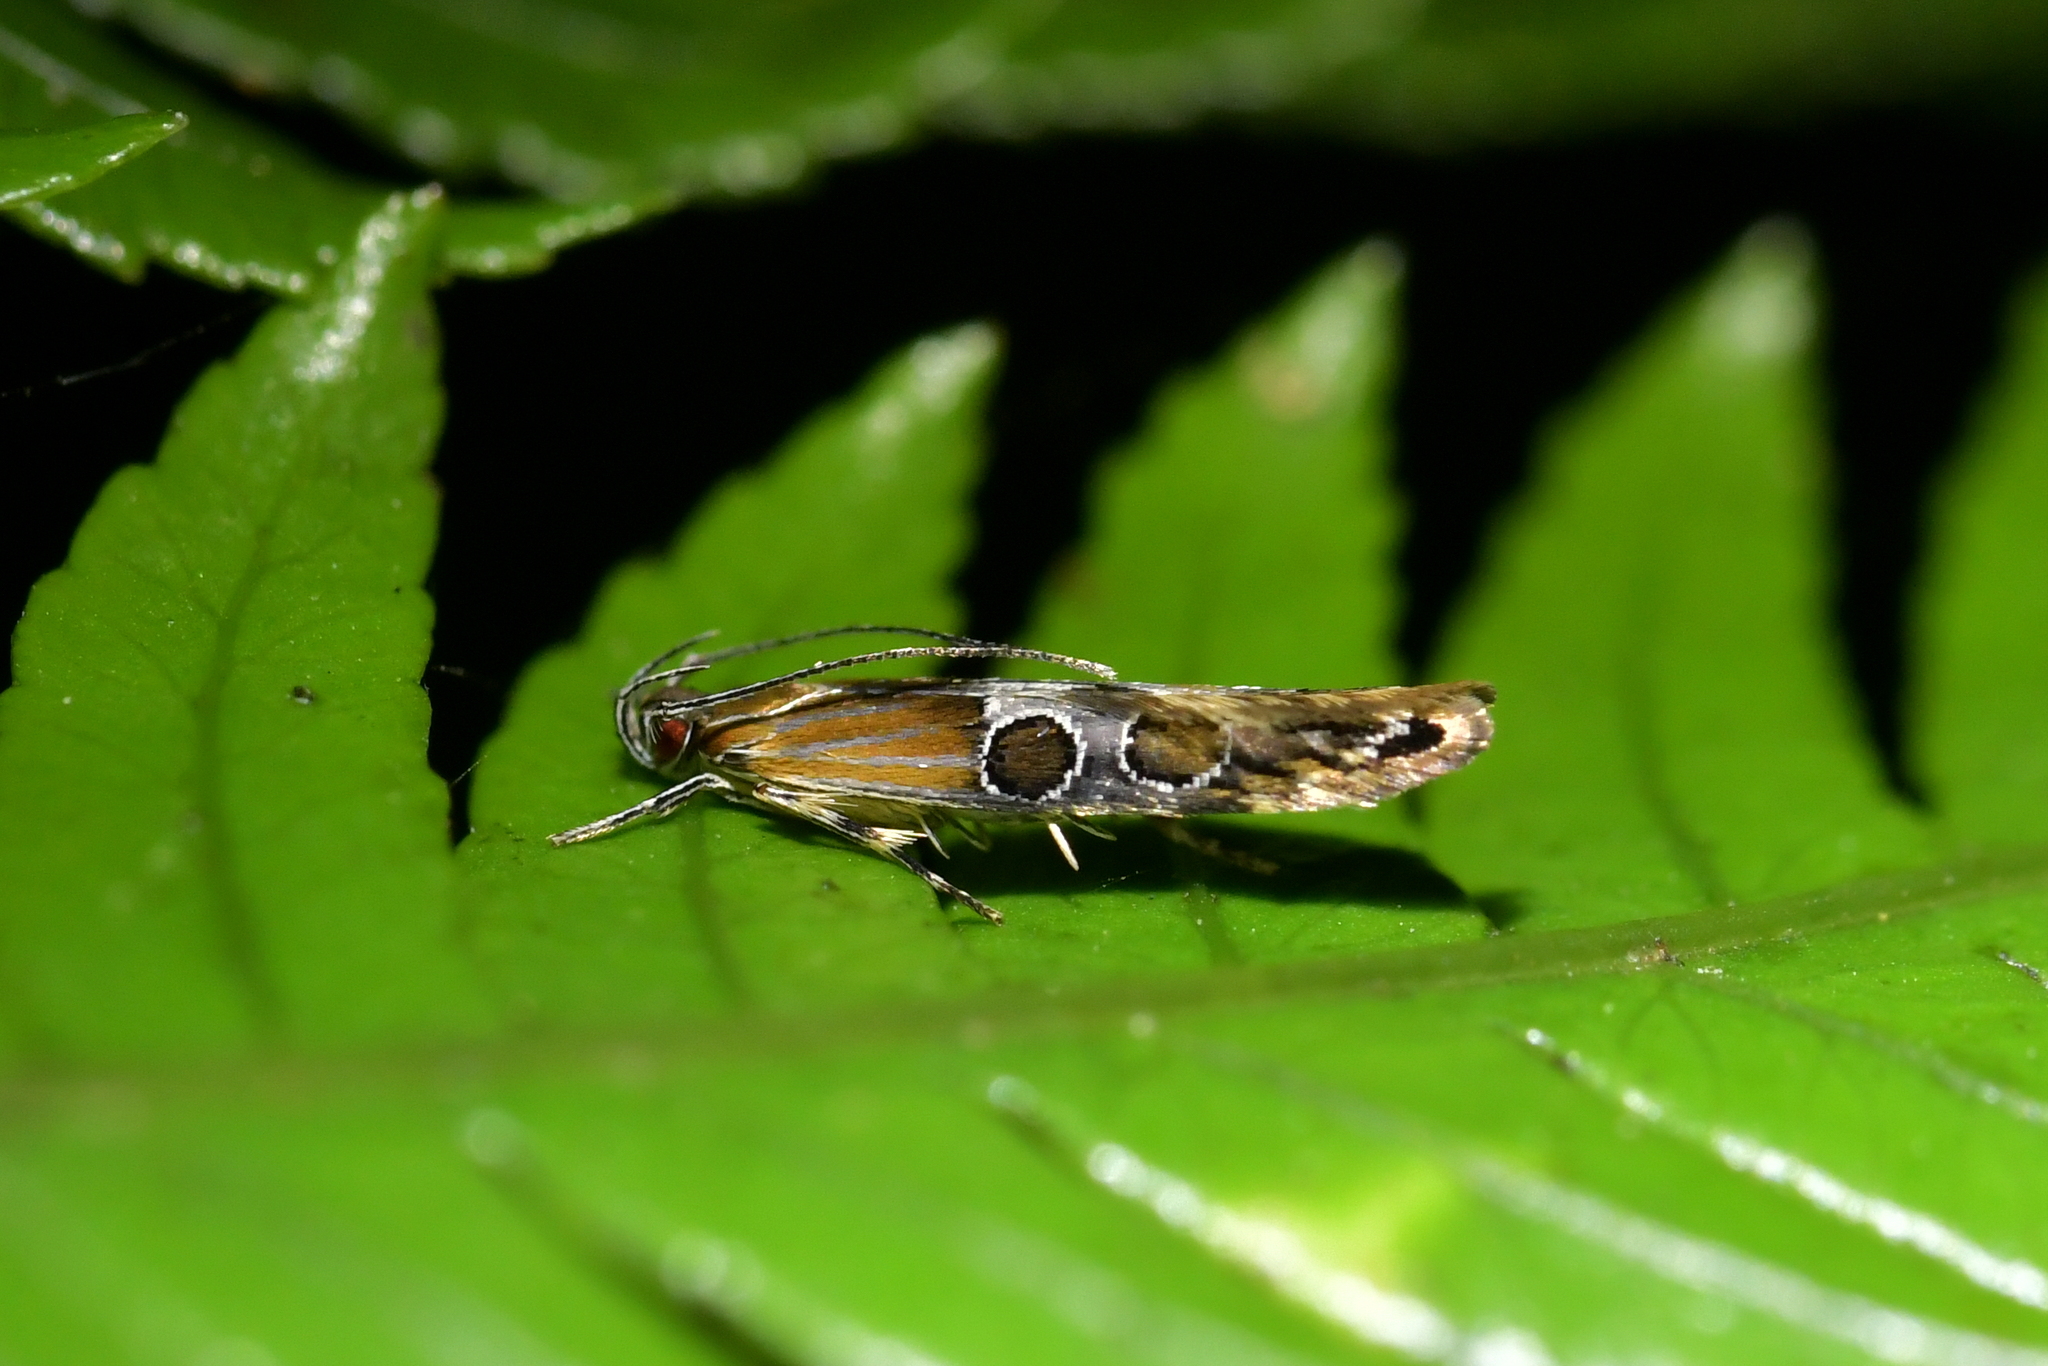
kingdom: Animalia
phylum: Arthropoda
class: Insecta
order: Lepidoptera
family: Elachistidae
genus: Circoxena
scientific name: Circoxena ditrocha
